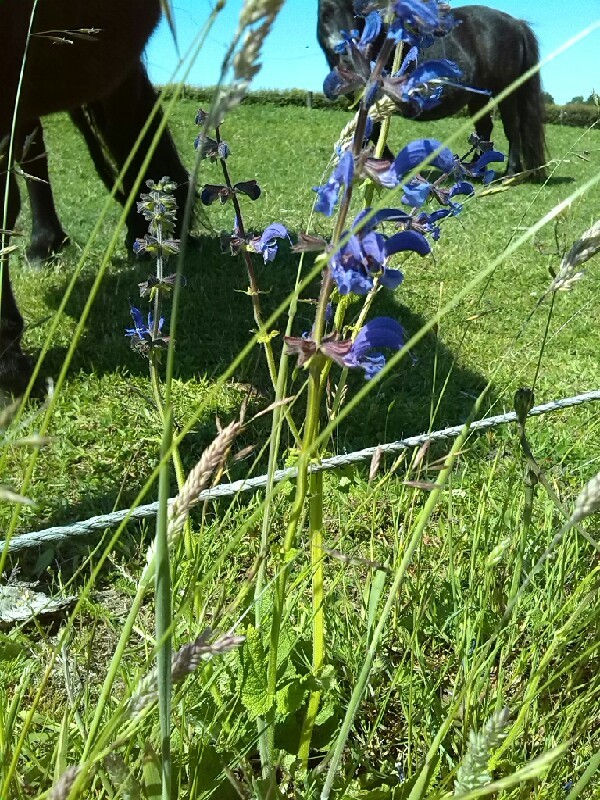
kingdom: Plantae
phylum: Tracheophyta
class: Magnoliopsida
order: Lamiales
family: Lamiaceae
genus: Salvia
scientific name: Salvia pratensis
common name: Meadow sage
